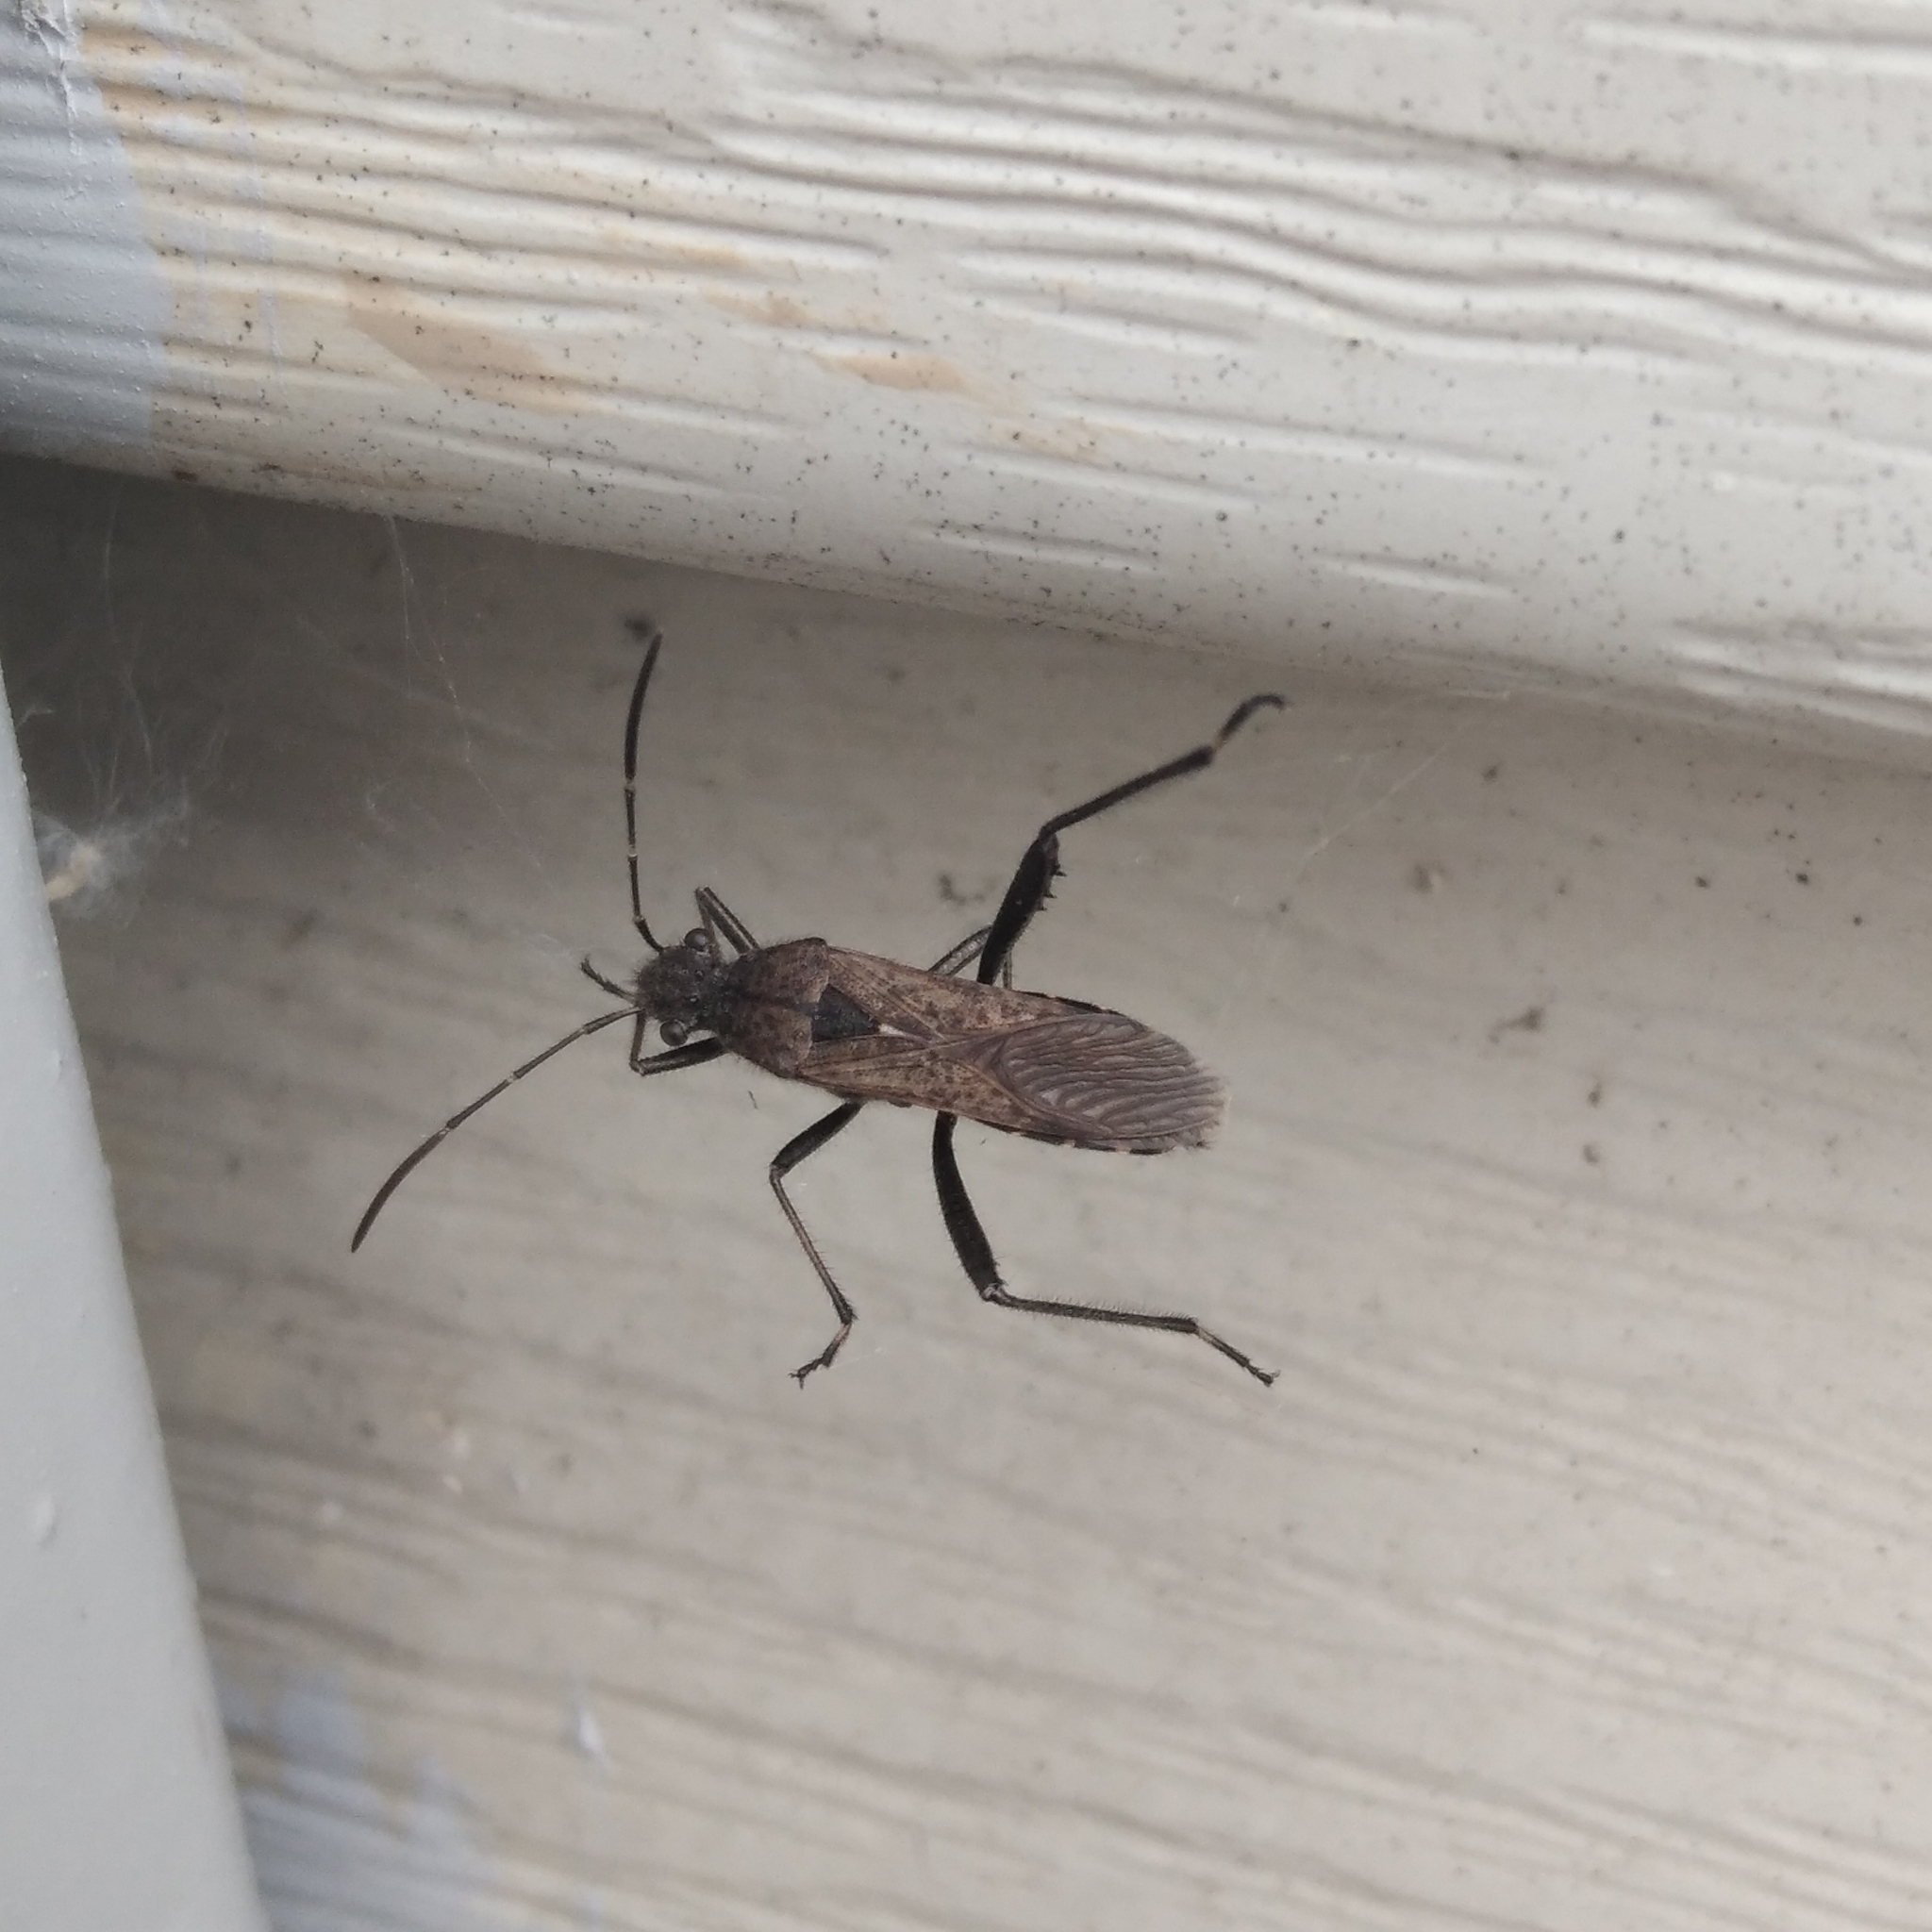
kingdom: Animalia
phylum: Arthropoda
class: Insecta
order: Hemiptera
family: Alydidae
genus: Alydus
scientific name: Alydus calcaratus
